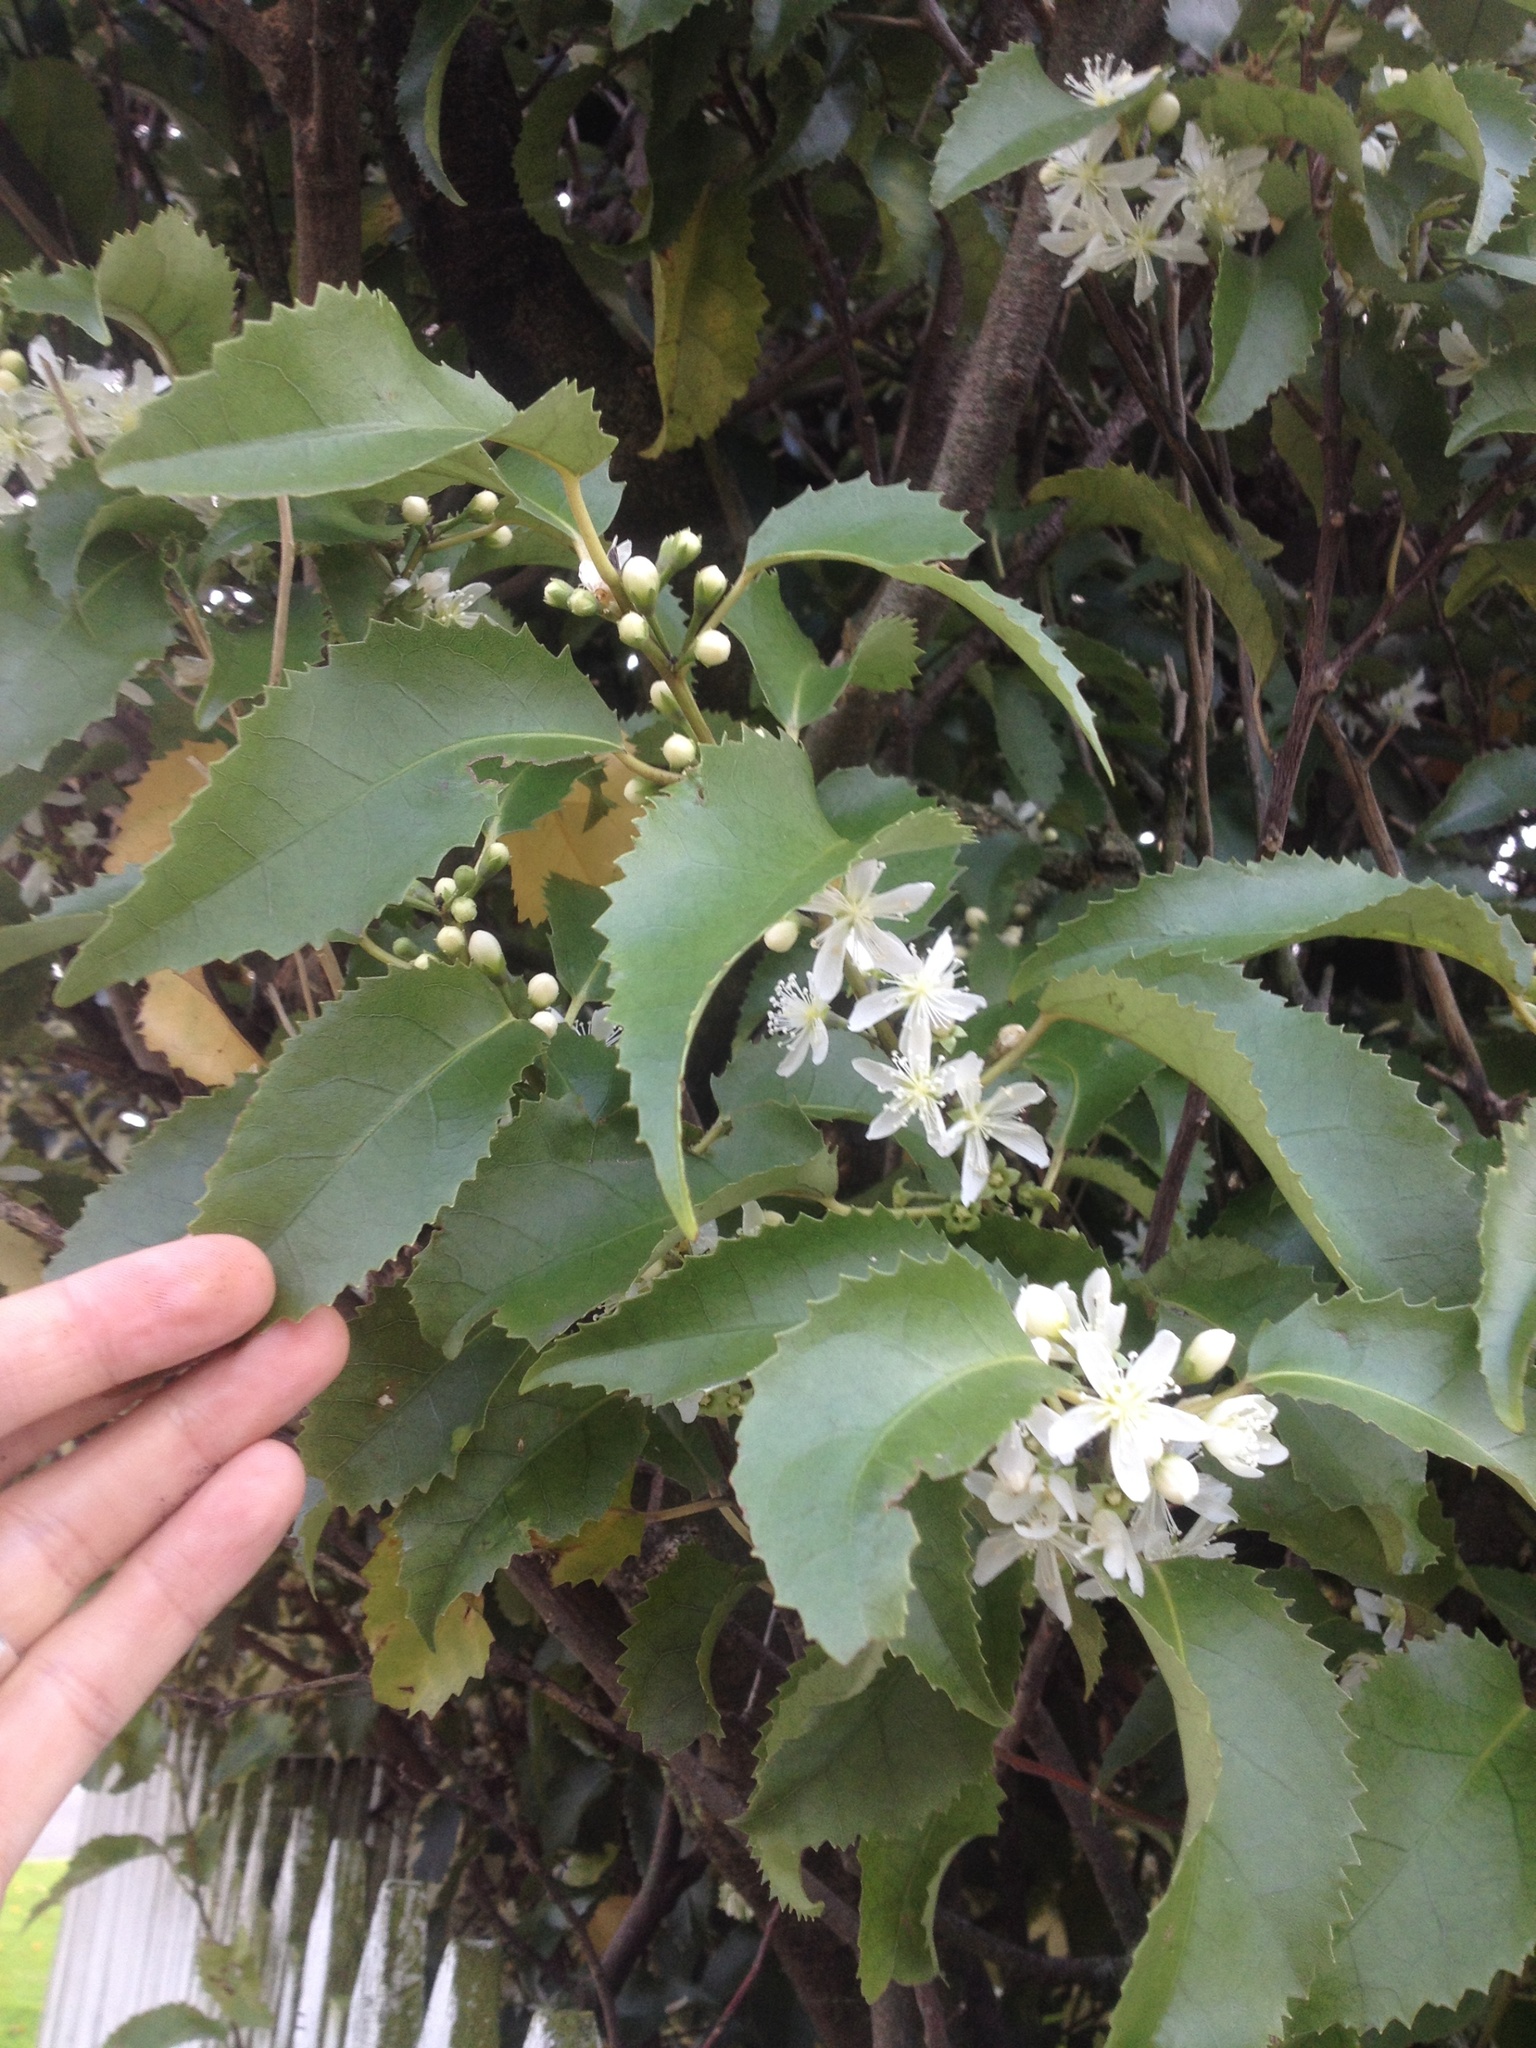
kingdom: Plantae
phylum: Tracheophyta
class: Magnoliopsida
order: Malvales
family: Malvaceae
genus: Hoheria
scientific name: Hoheria populnea
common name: Lacebark
